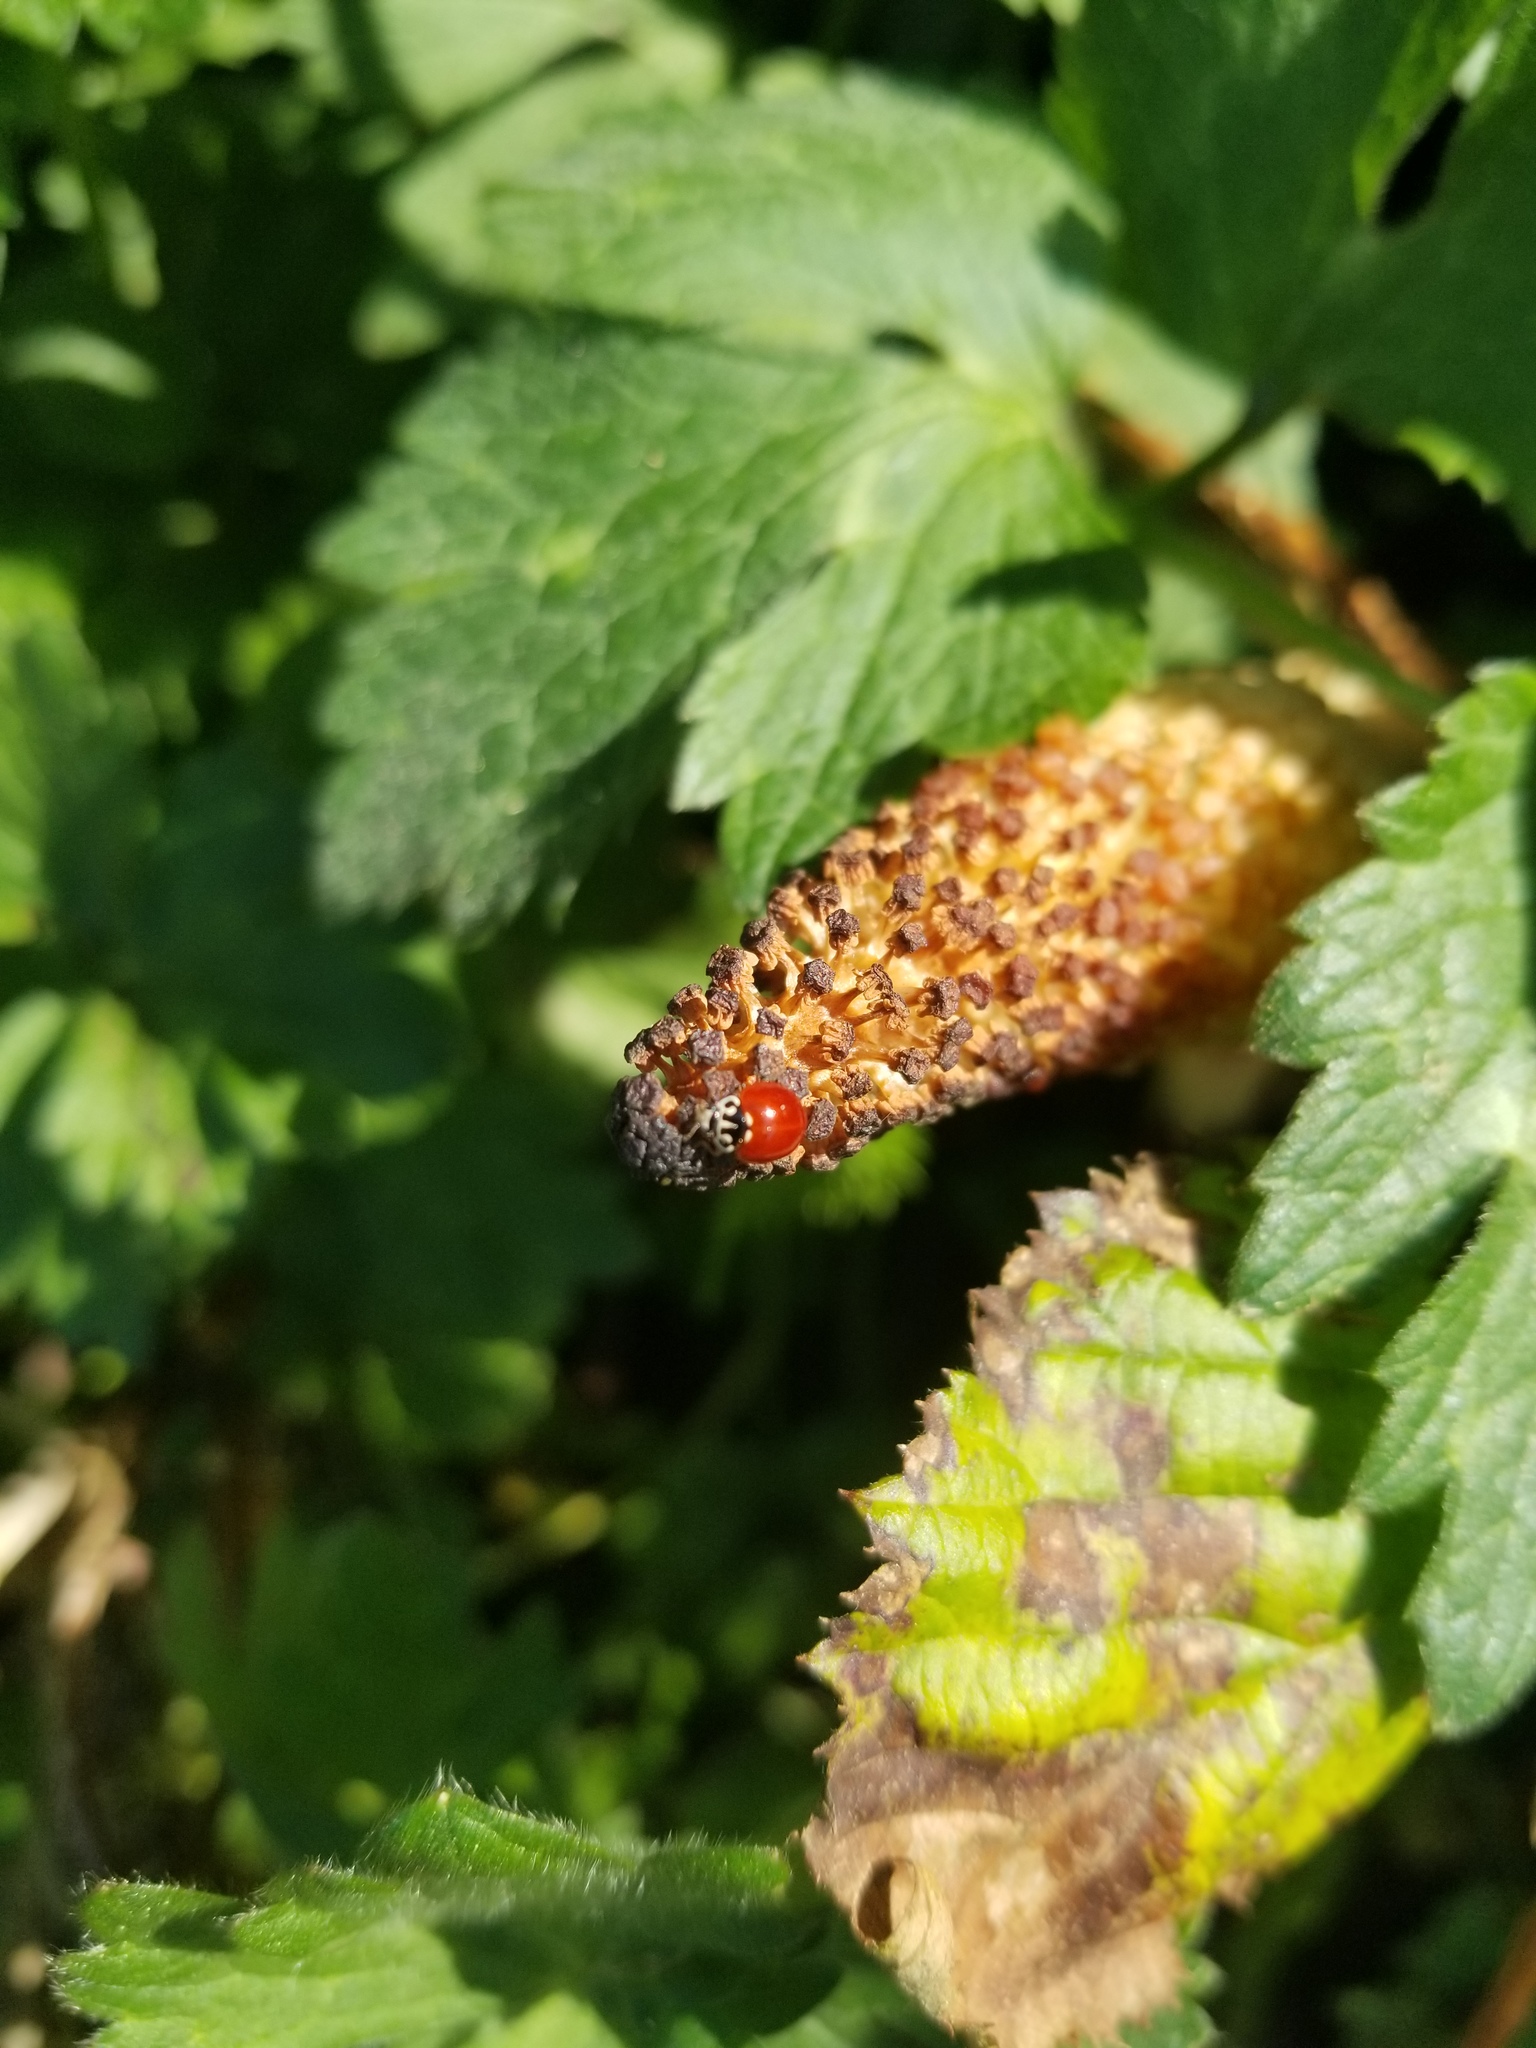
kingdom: Animalia
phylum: Arthropoda
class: Insecta
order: Coleoptera
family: Coccinellidae
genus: Cycloneda
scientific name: Cycloneda polita
